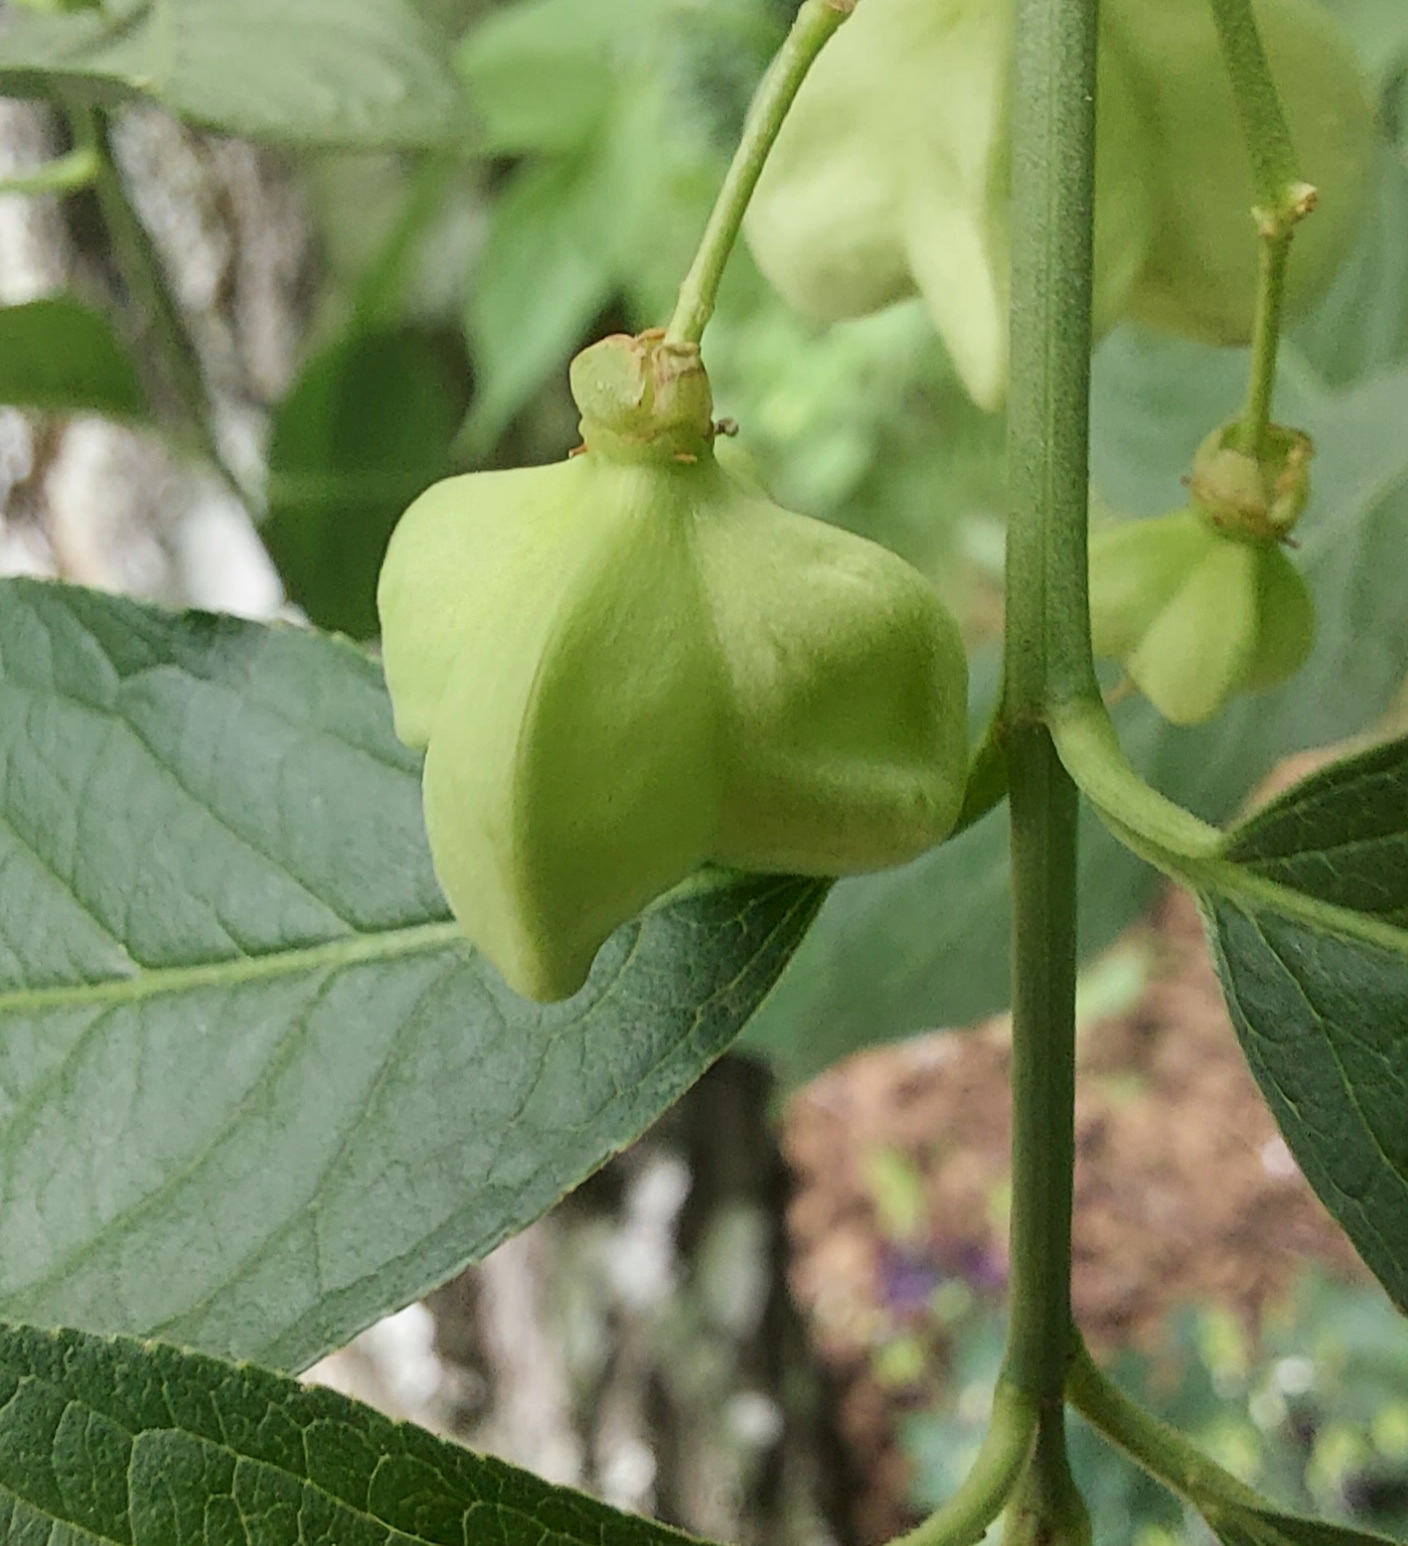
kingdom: Plantae
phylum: Tracheophyta
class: Magnoliopsida
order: Celastrales
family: Celastraceae
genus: Euonymus
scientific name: Euonymus europaeus
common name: Spindle
